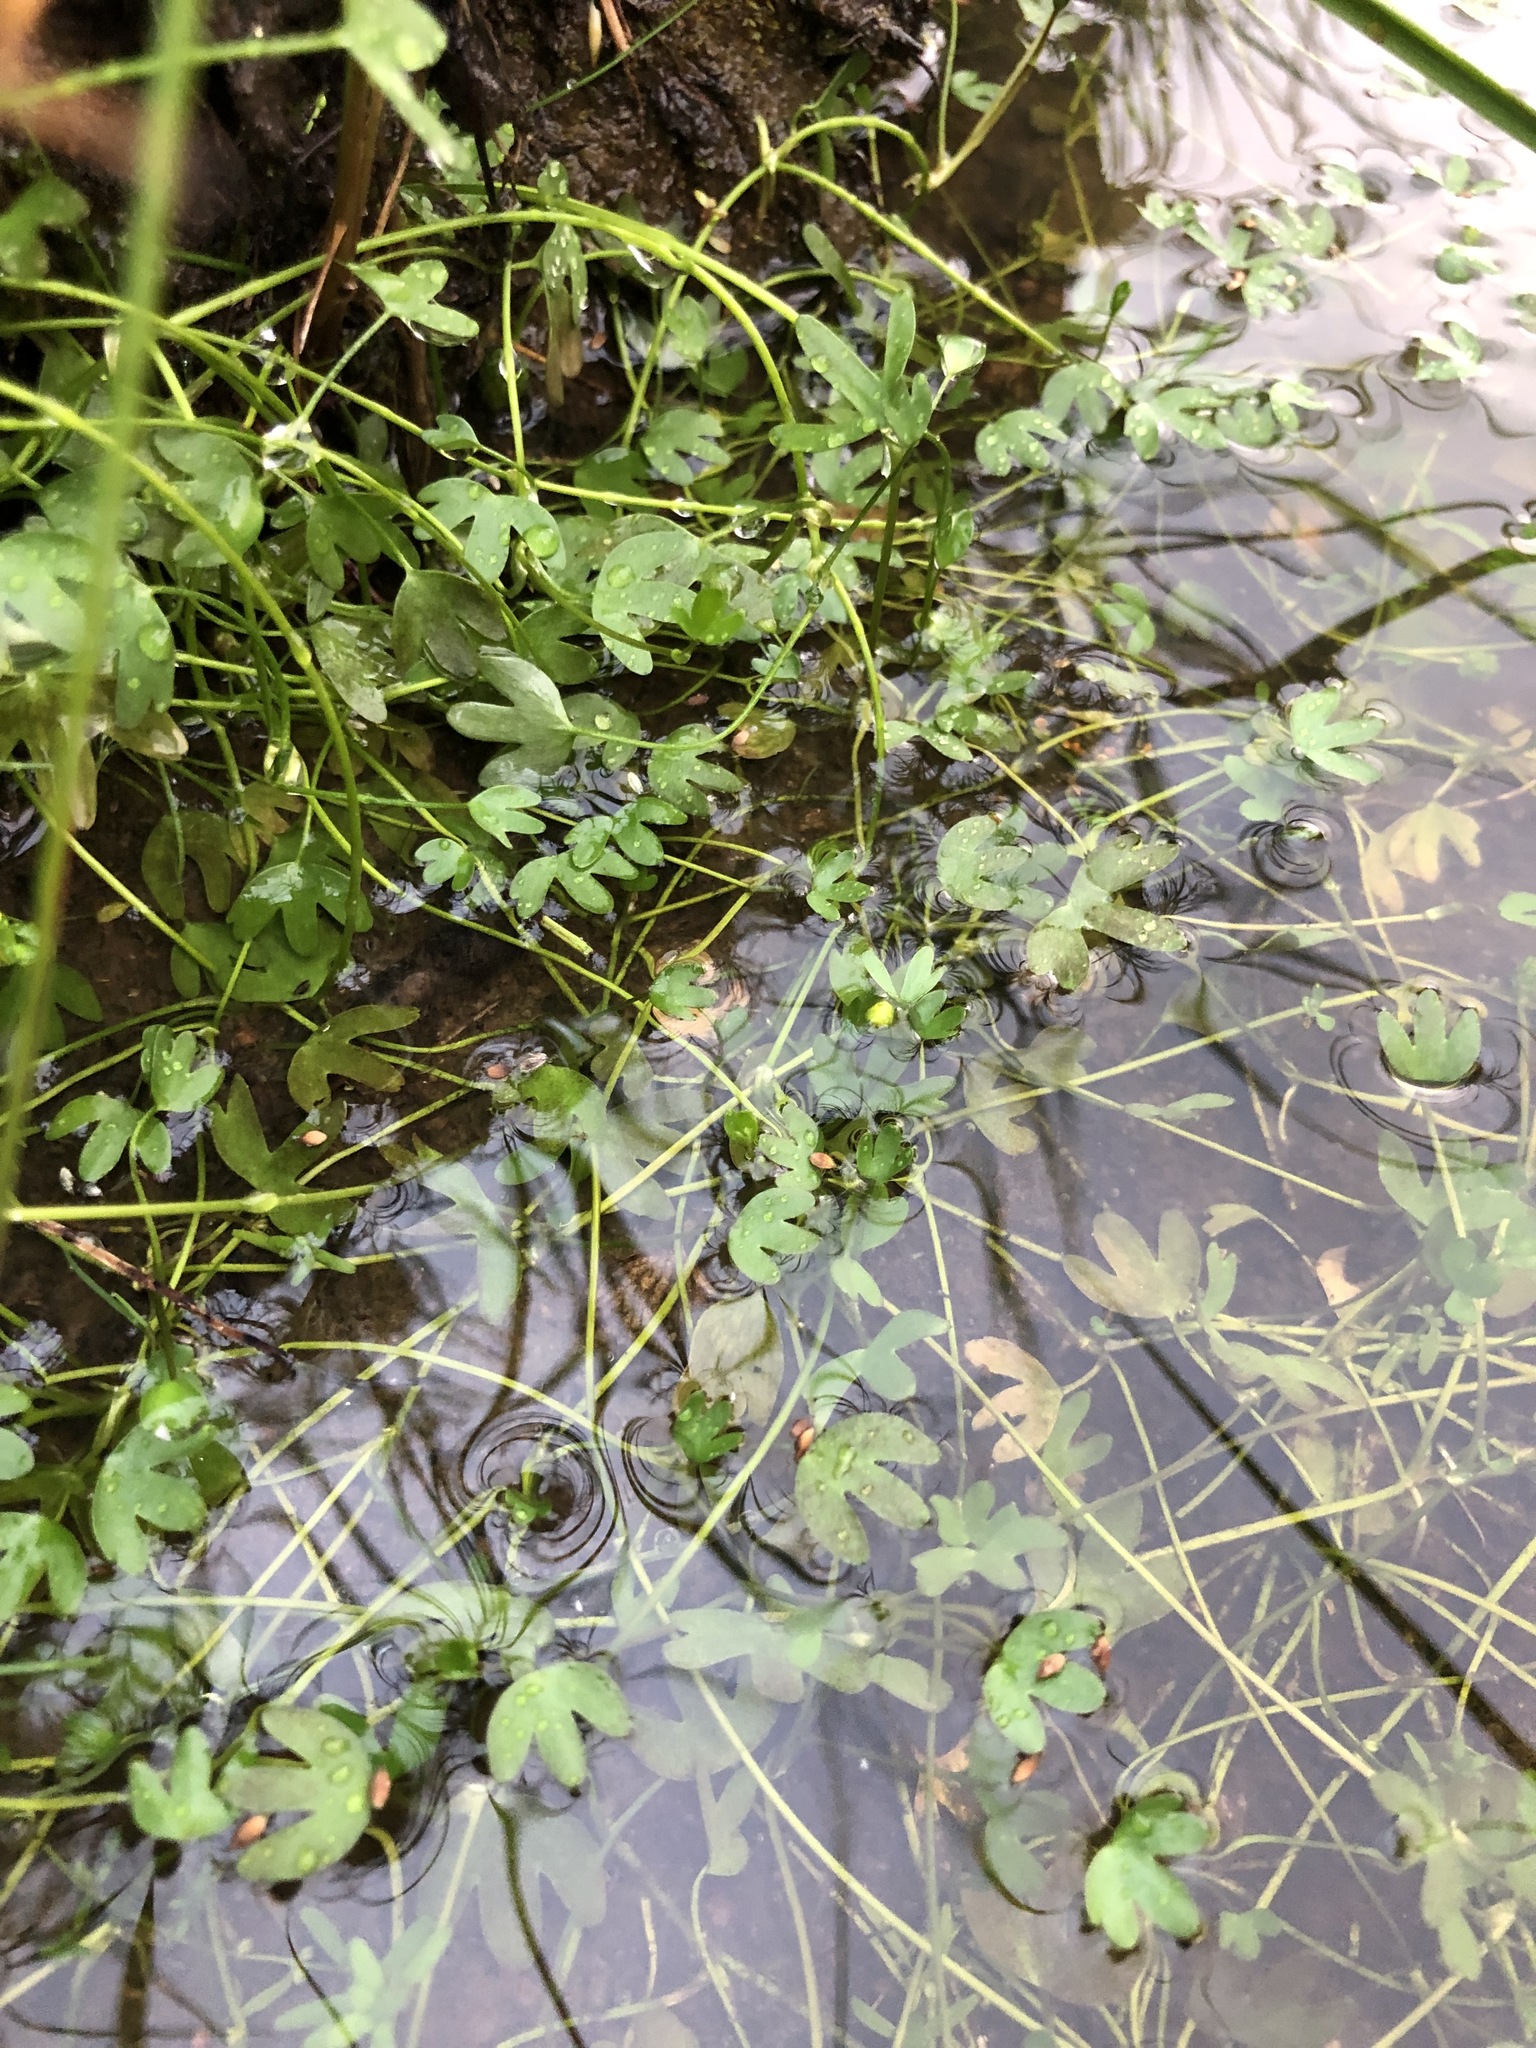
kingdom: Plantae
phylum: Tracheophyta
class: Magnoliopsida
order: Ranunculales
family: Ranunculaceae
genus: Ranunculus
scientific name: Ranunculus reptans
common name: Creeping spearwort
